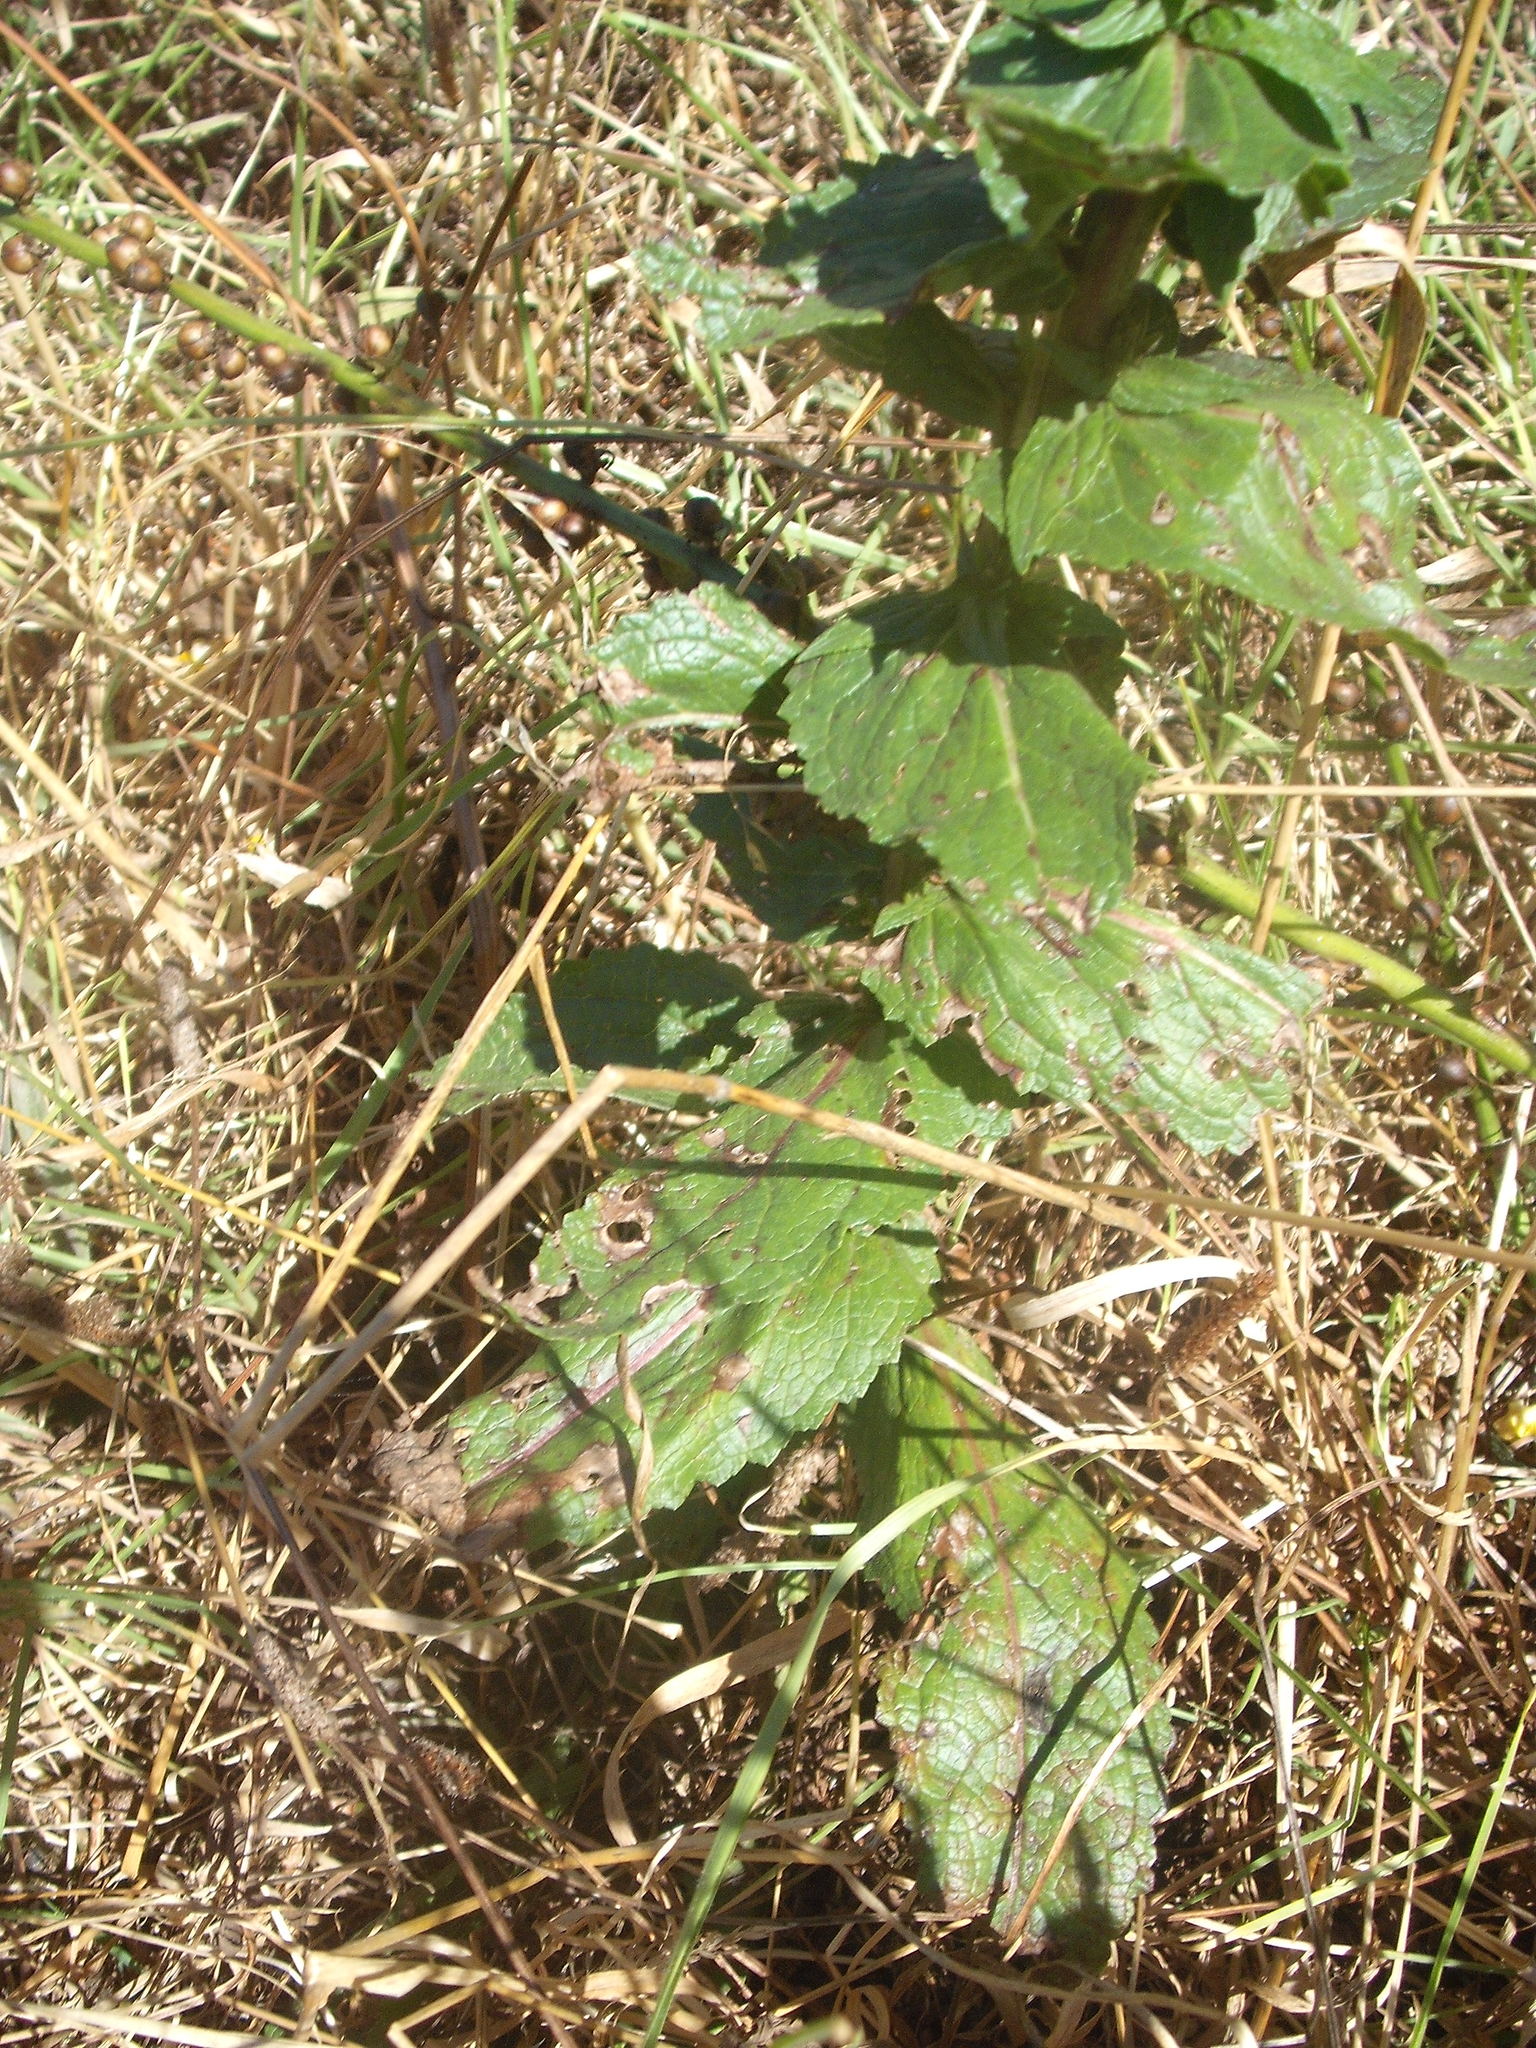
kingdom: Plantae
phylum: Tracheophyta
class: Magnoliopsida
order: Lamiales
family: Scrophulariaceae
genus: Verbascum
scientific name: Verbascum virgatum
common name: Twiggy mullein
